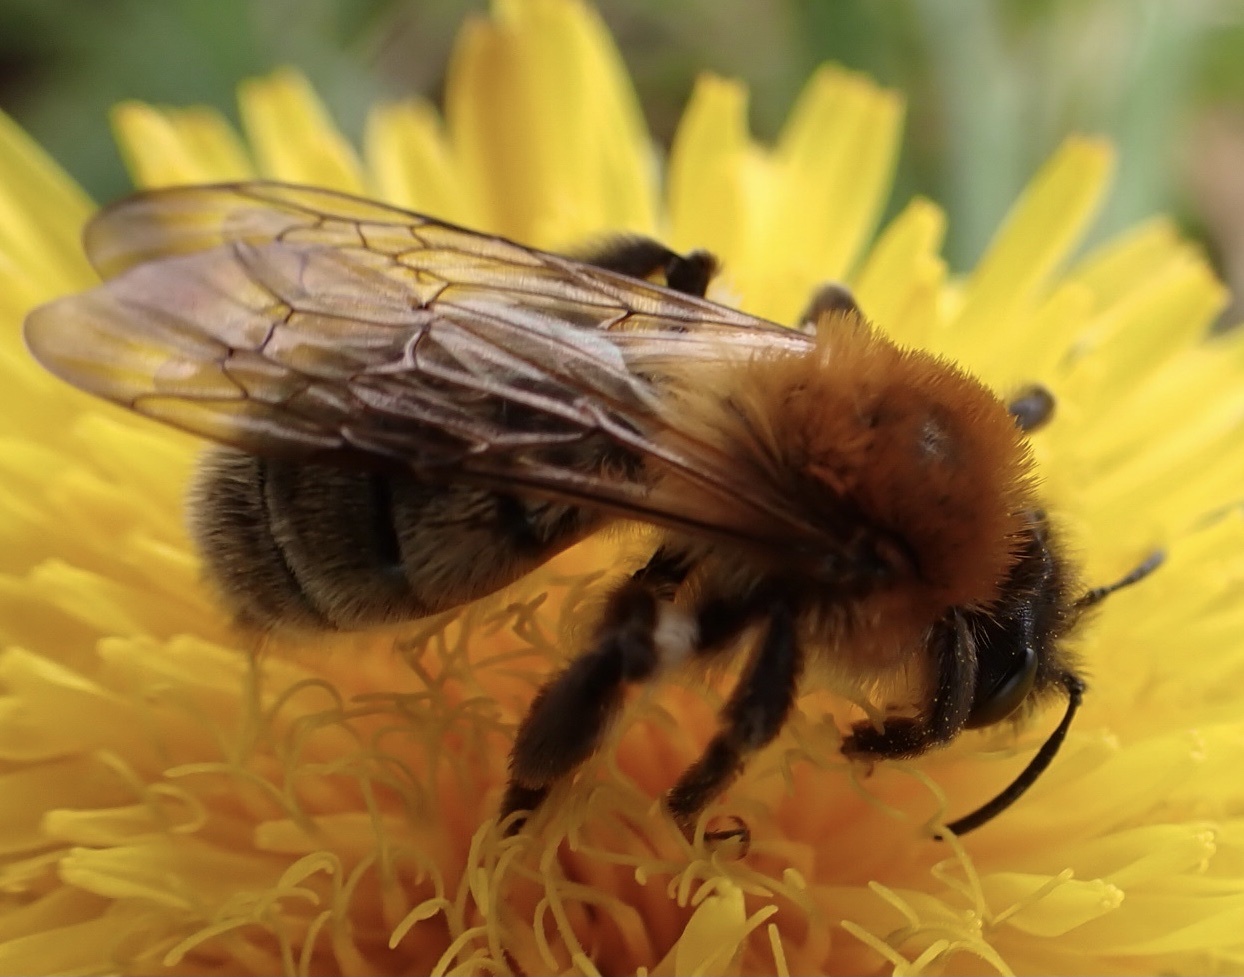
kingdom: Animalia
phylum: Arthropoda
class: Insecta
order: Hymenoptera
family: Andrenidae
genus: Andrena
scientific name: Andrena nitida
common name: Grey-patched mining bee
